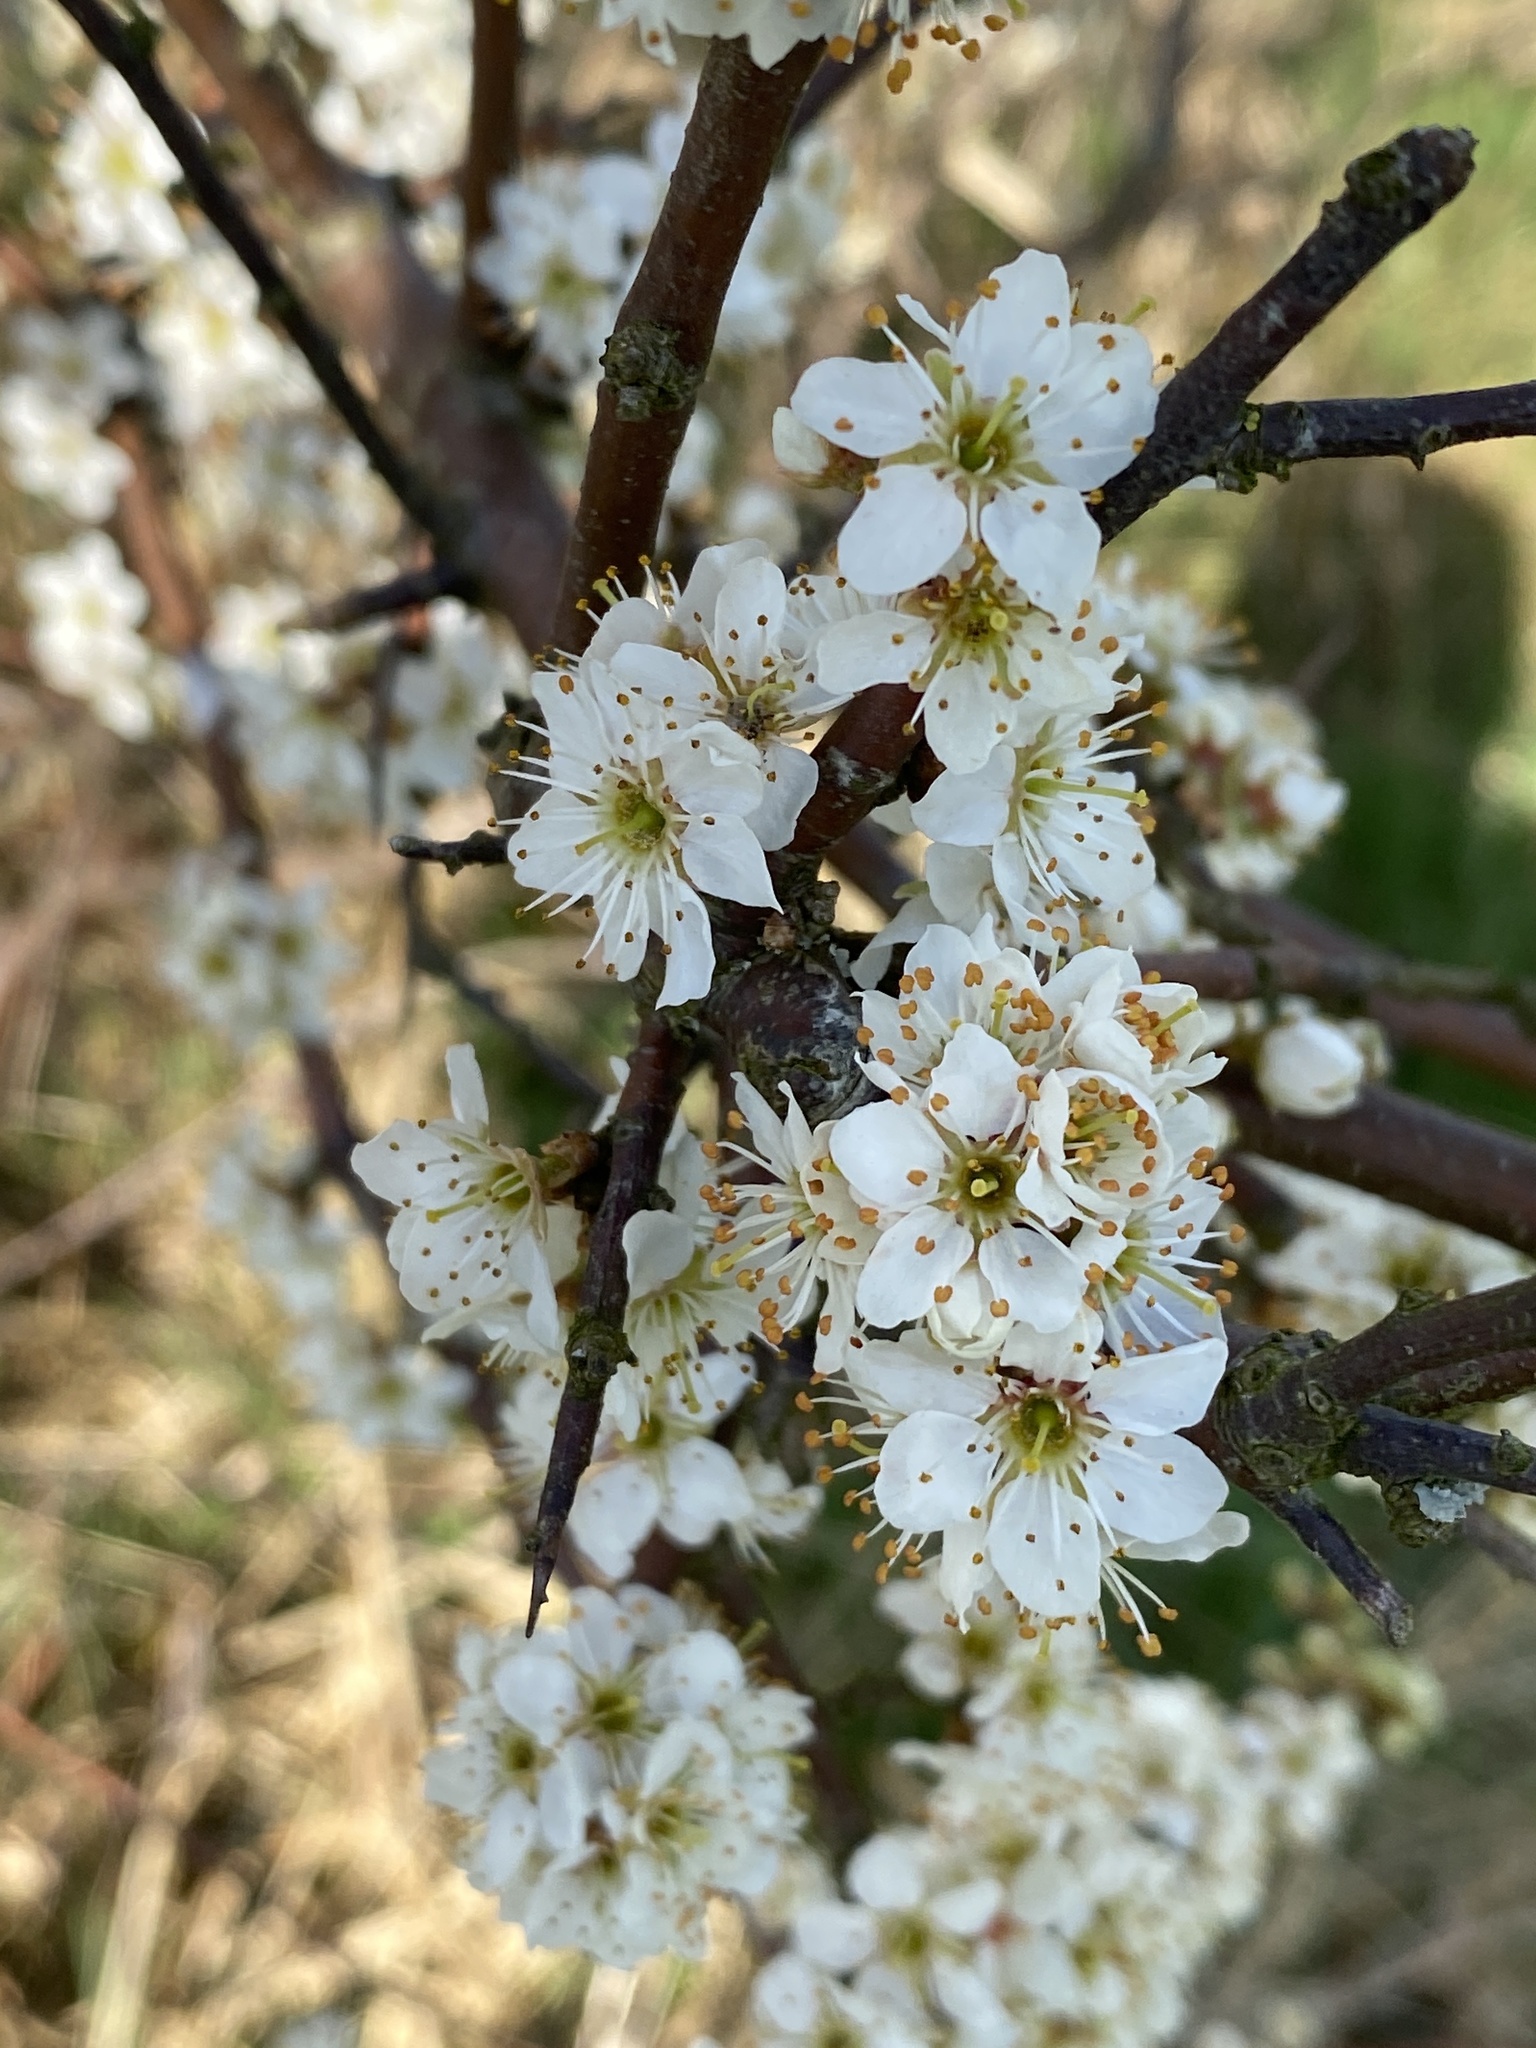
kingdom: Plantae
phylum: Tracheophyta
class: Magnoliopsida
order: Rosales
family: Rosaceae
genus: Prunus
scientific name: Prunus spinosa
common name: Blackthorn
